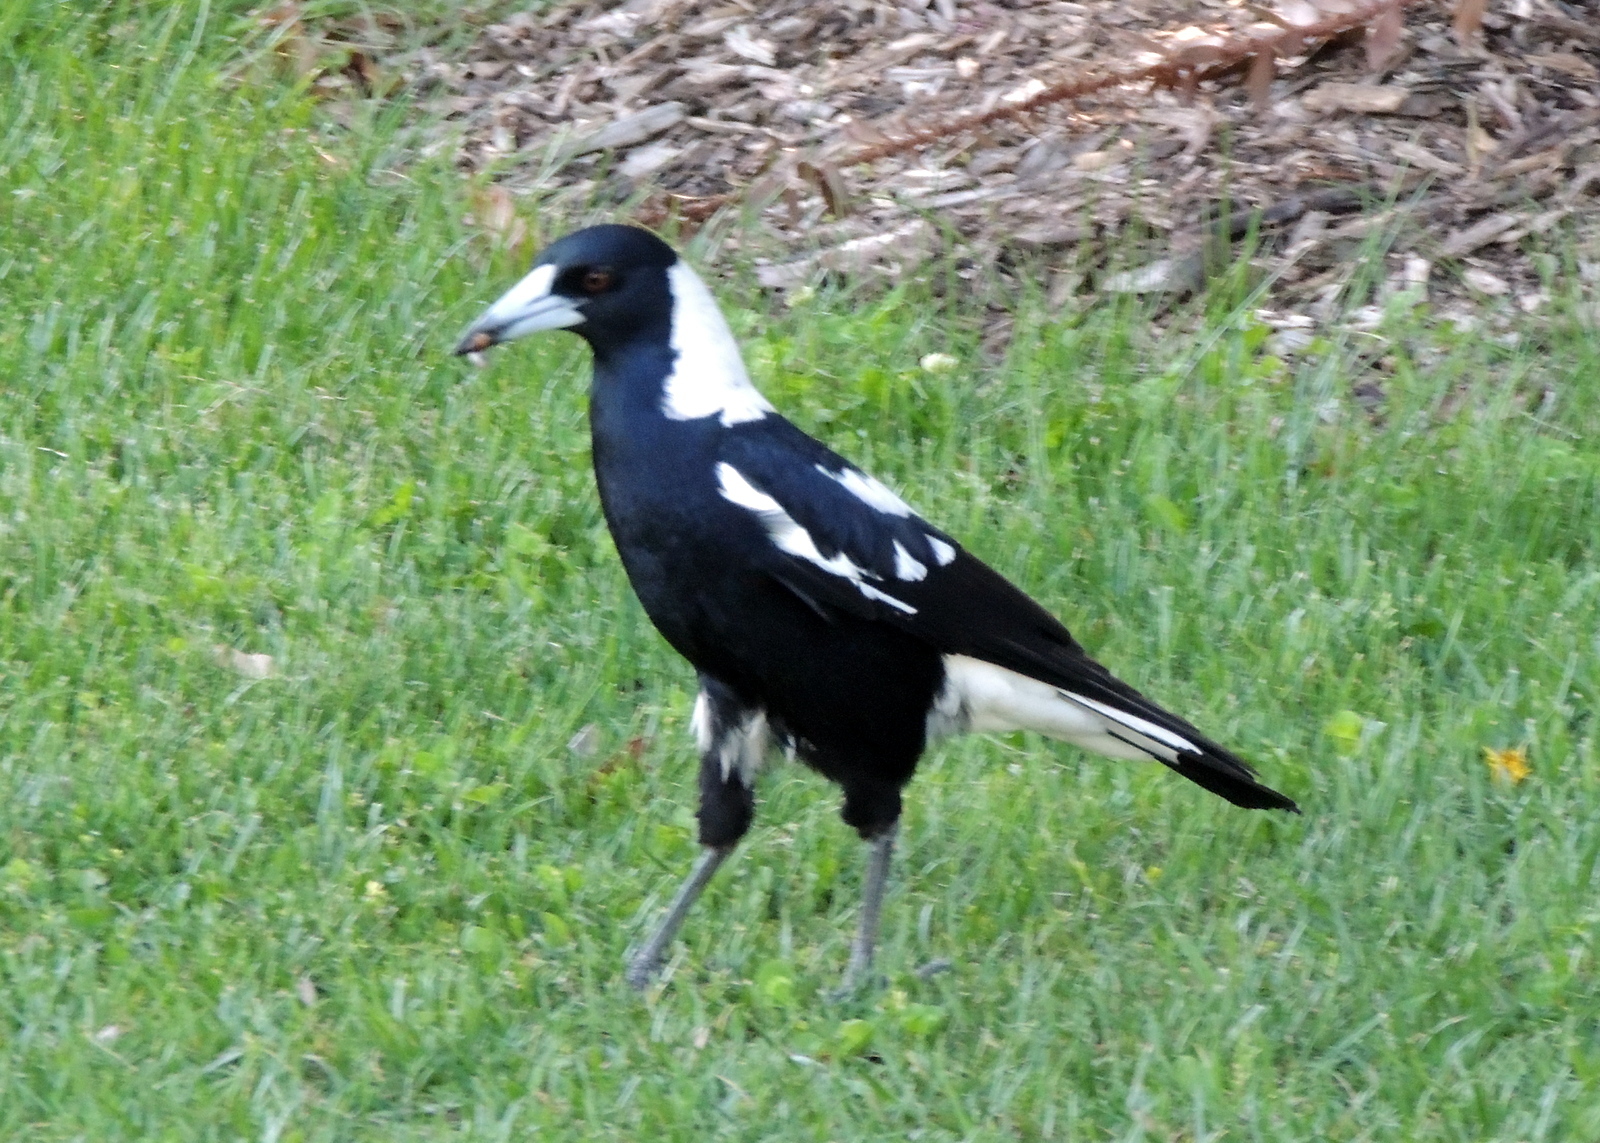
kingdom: Animalia
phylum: Chordata
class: Aves
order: Passeriformes
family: Cracticidae
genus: Gymnorhina
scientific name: Gymnorhina tibicen
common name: Australian magpie
